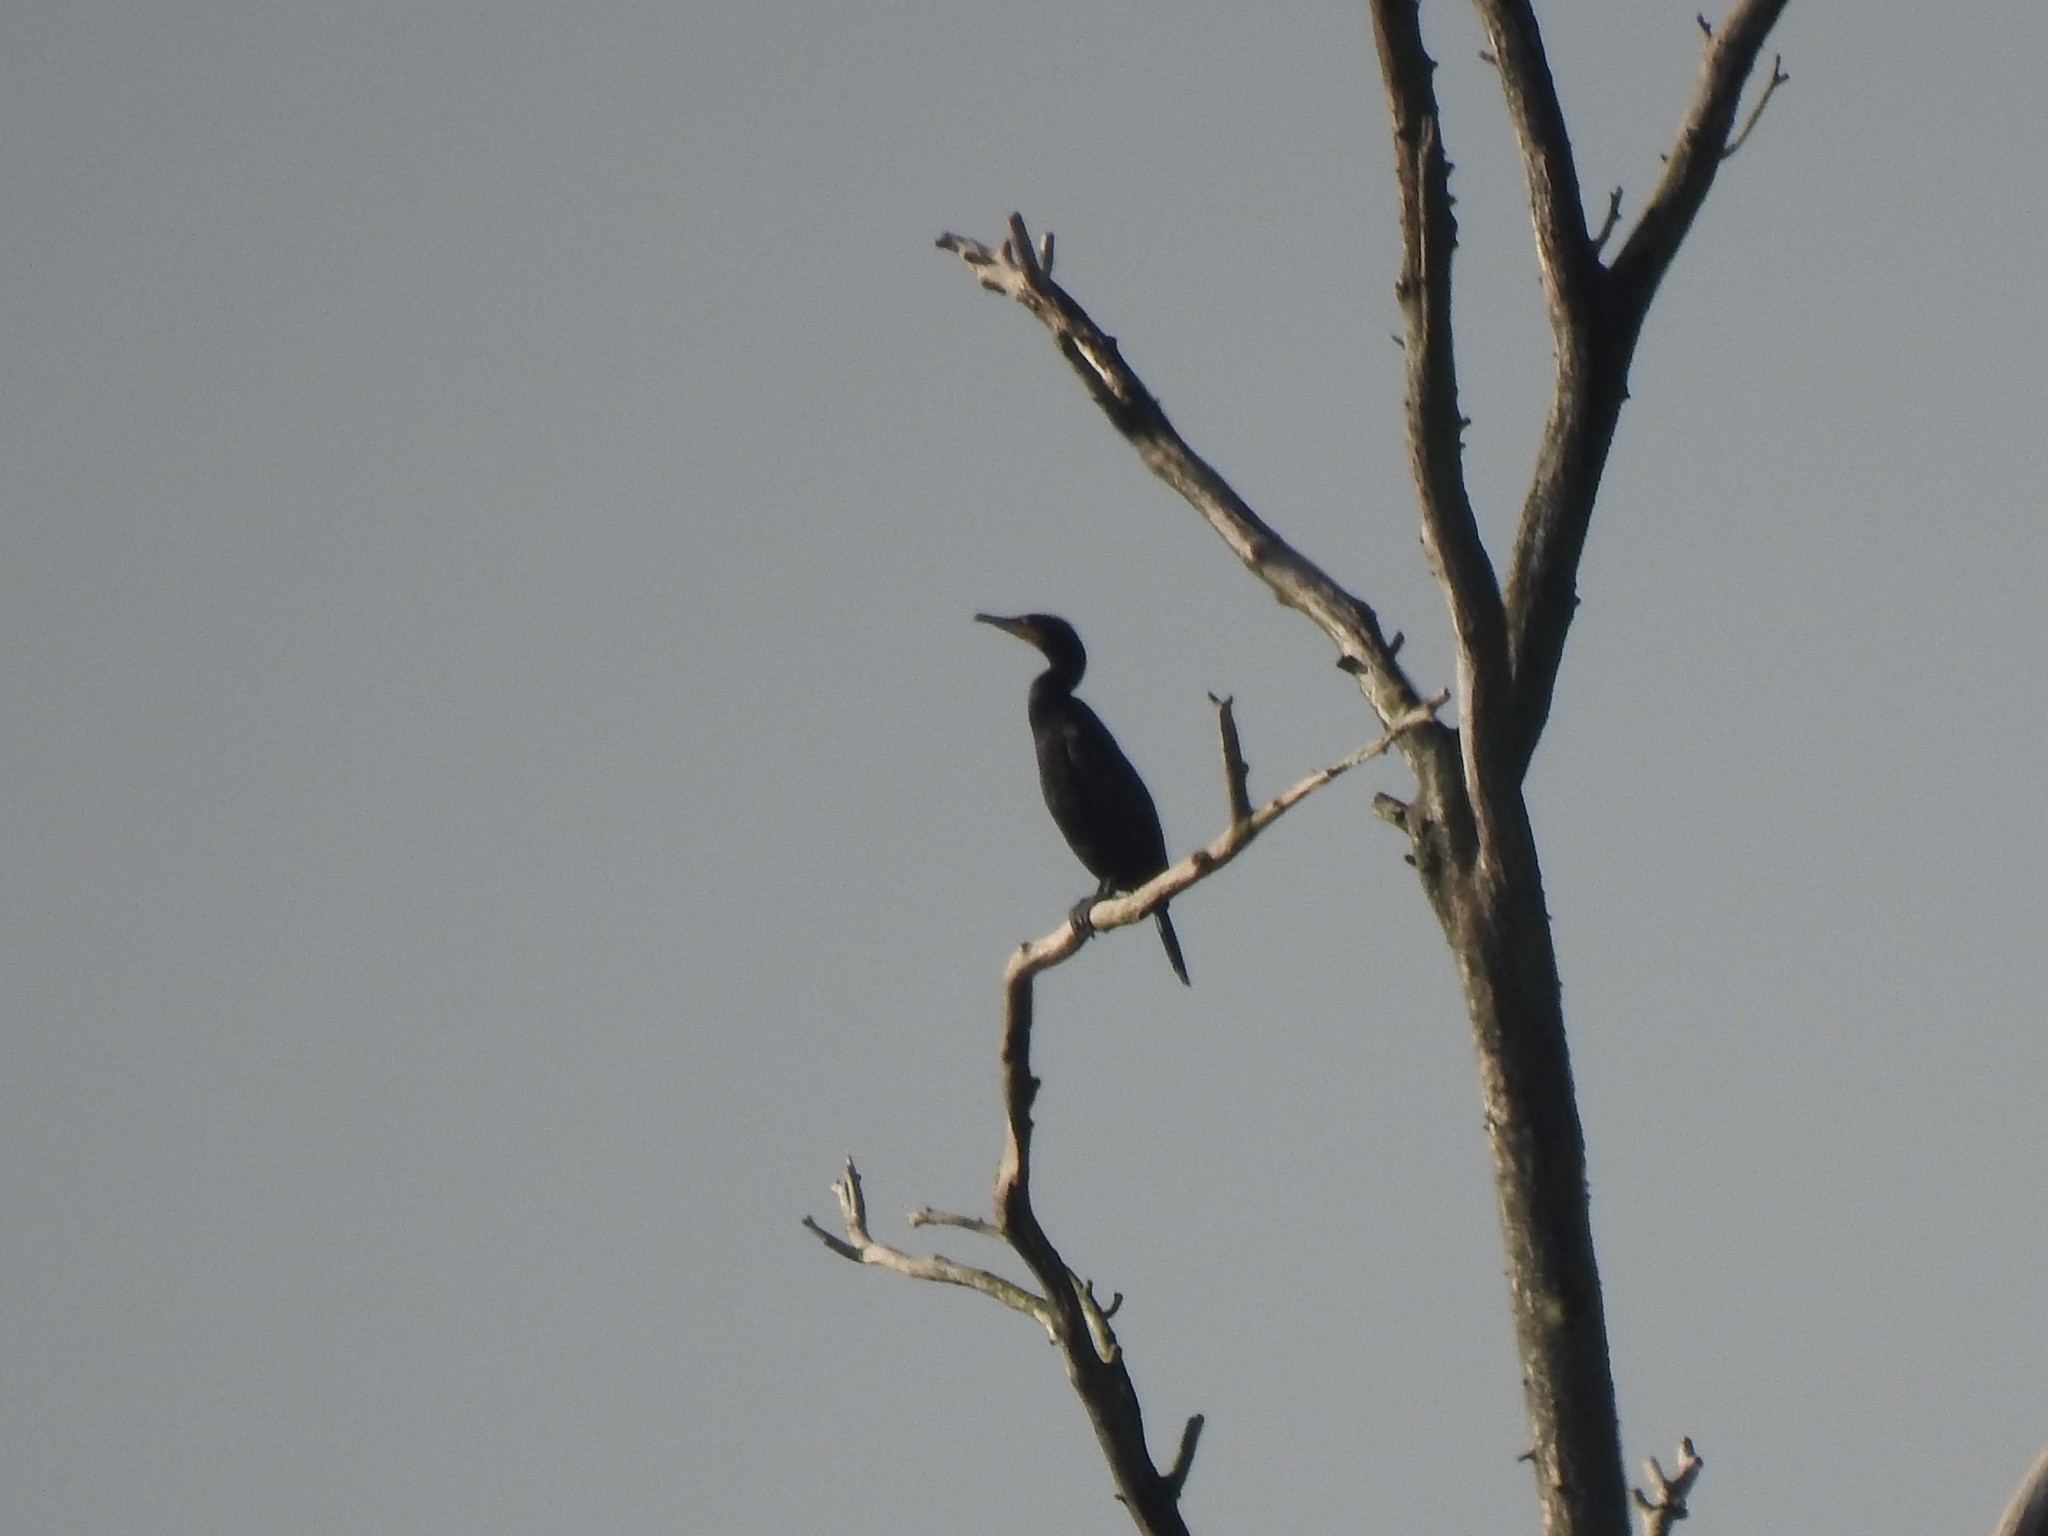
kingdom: Animalia
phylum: Chordata
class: Aves
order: Suliformes
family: Phalacrocoracidae
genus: Phalacrocorax
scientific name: Phalacrocorax carbo
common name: Great cormorant
